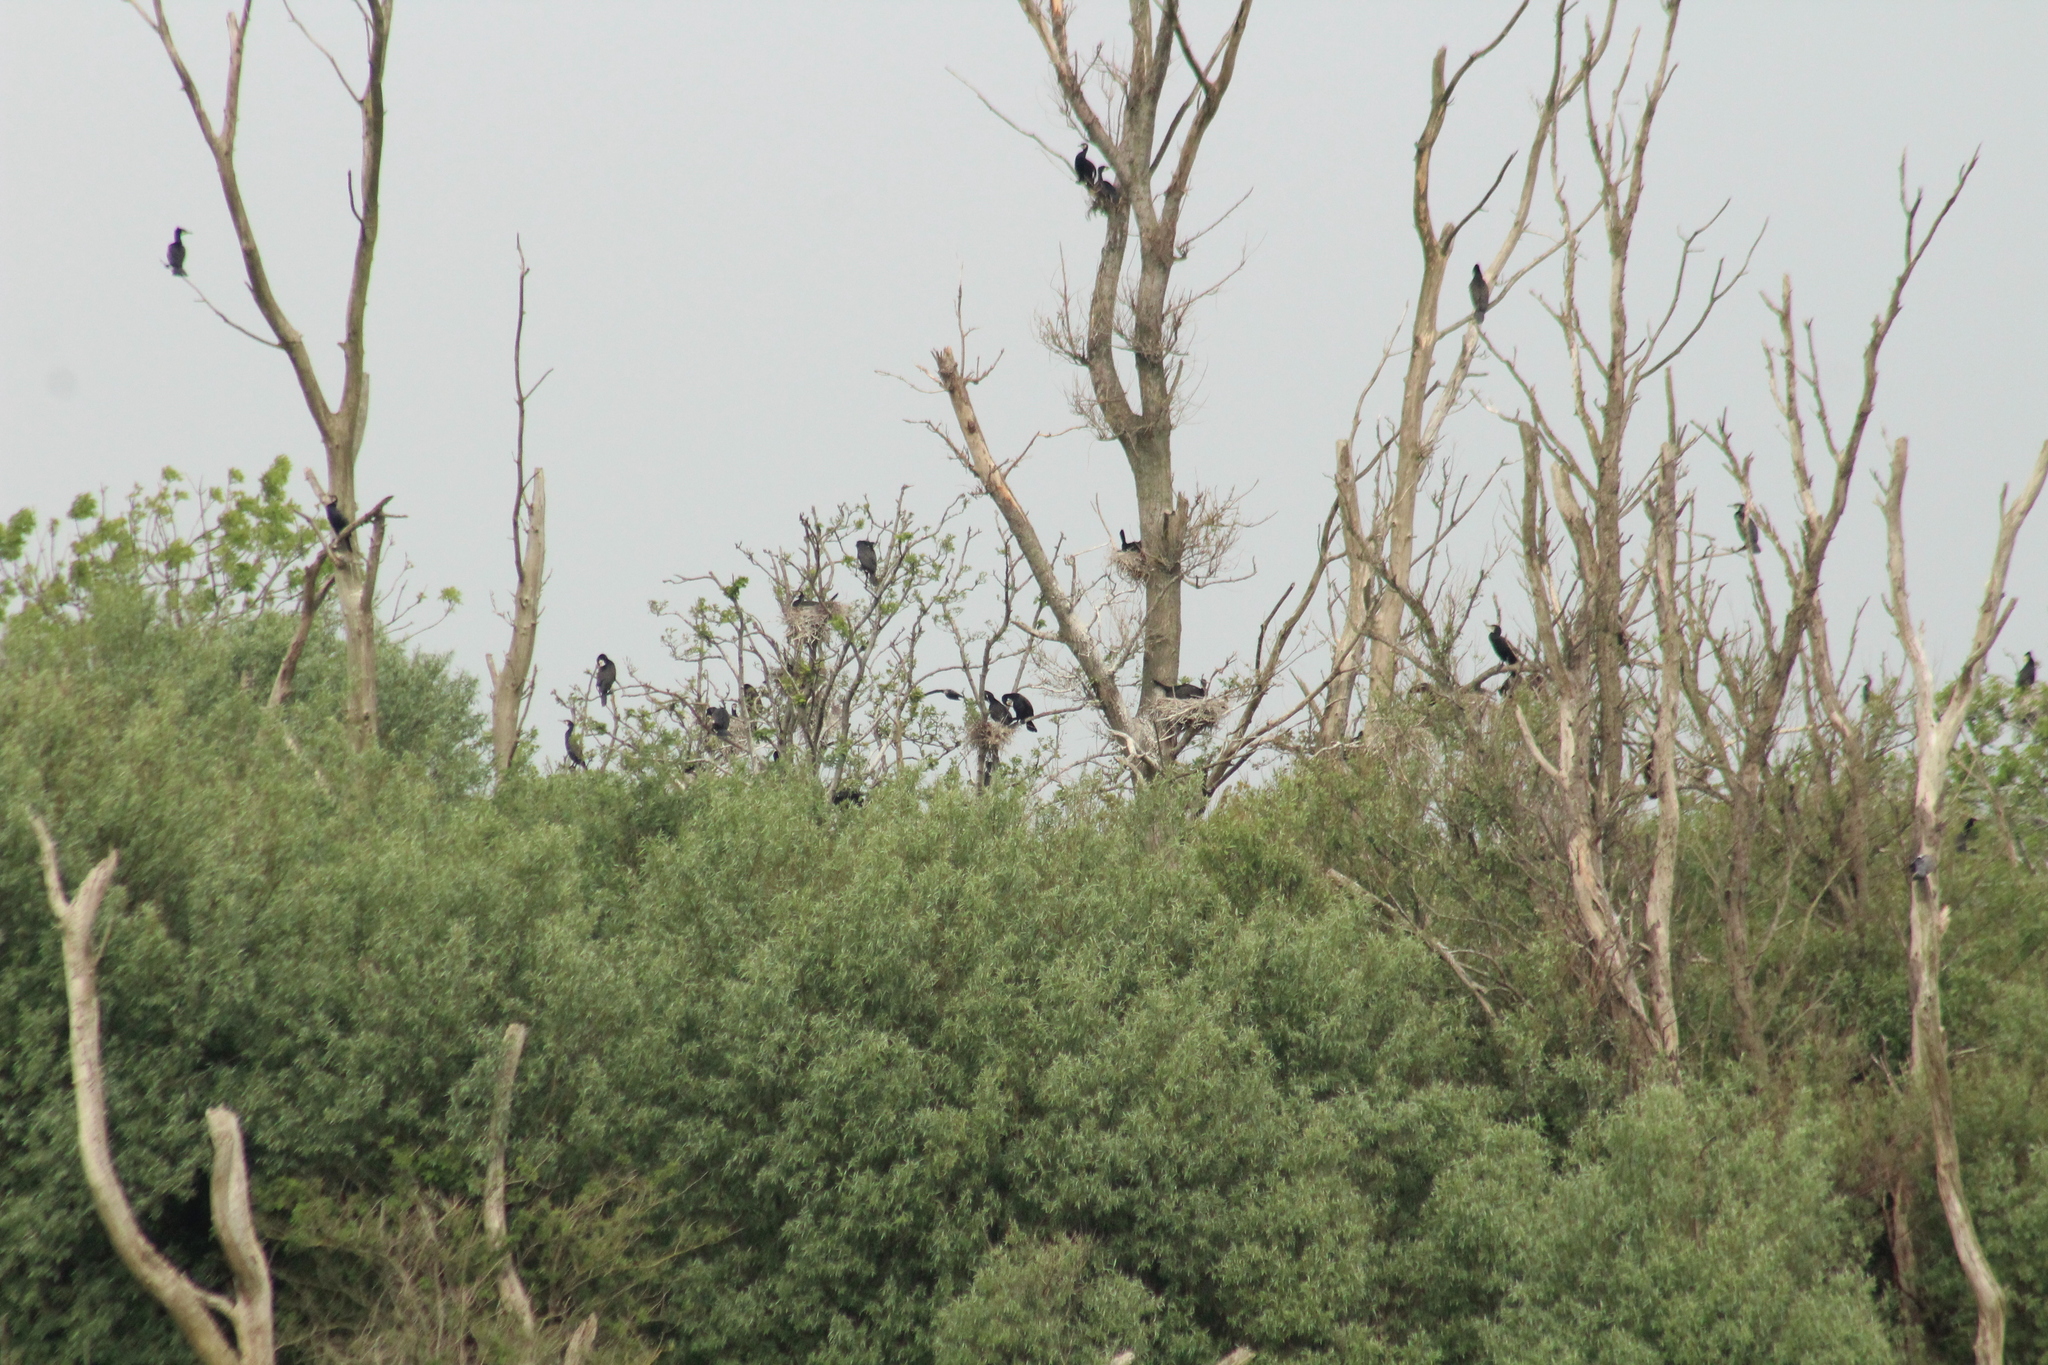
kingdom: Animalia
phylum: Chordata
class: Aves
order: Suliformes
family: Phalacrocoracidae
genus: Phalacrocorax
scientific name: Phalacrocorax carbo
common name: Great cormorant
